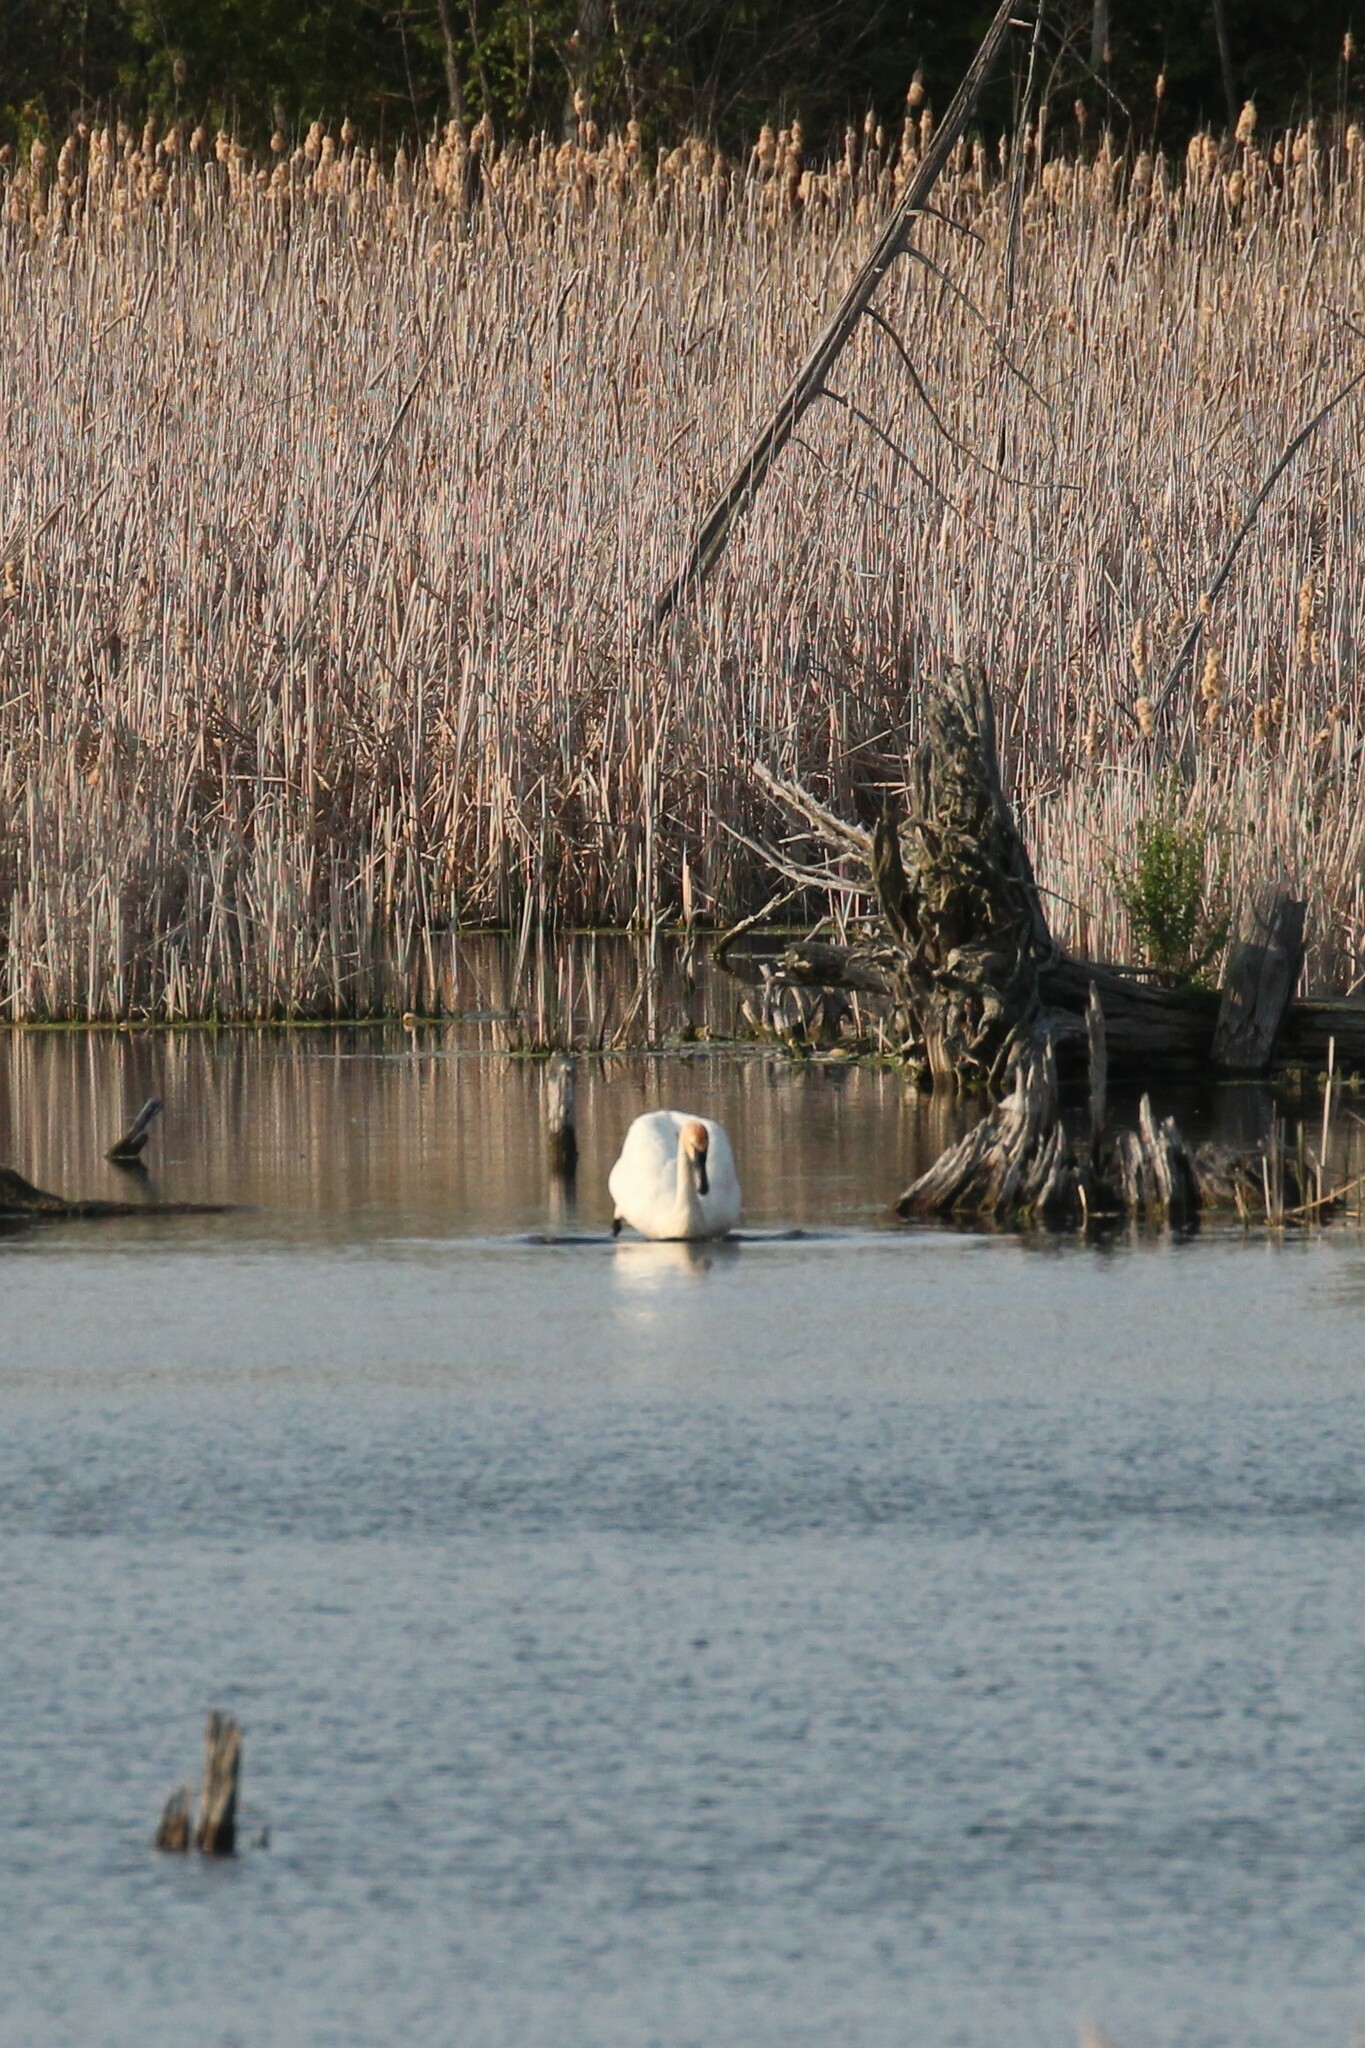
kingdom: Animalia
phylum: Chordata
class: Aves
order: Anseriformes
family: Anatidae
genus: Cygnus
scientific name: Cygnus buccinator
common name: Trumpeter swan
